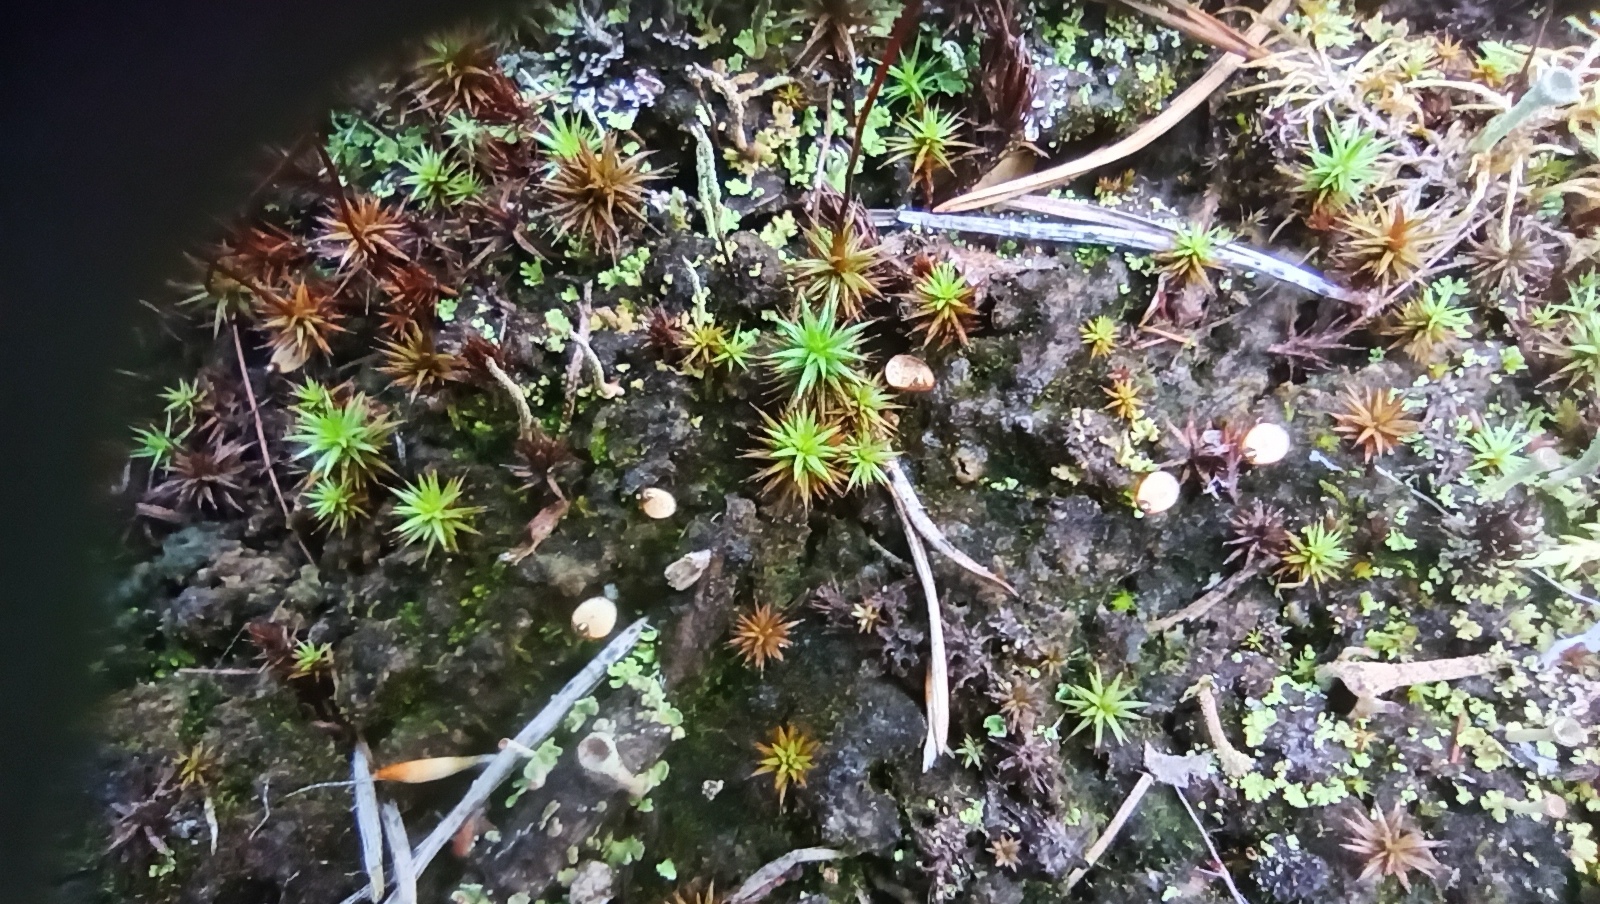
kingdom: Plantae
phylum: Bryophyta
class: Bryopsida
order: Buxbaumiales
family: Buxbaumiaceae
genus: Buxbaumia
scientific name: Buxbaumia aphylla
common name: Brown shield-moss
